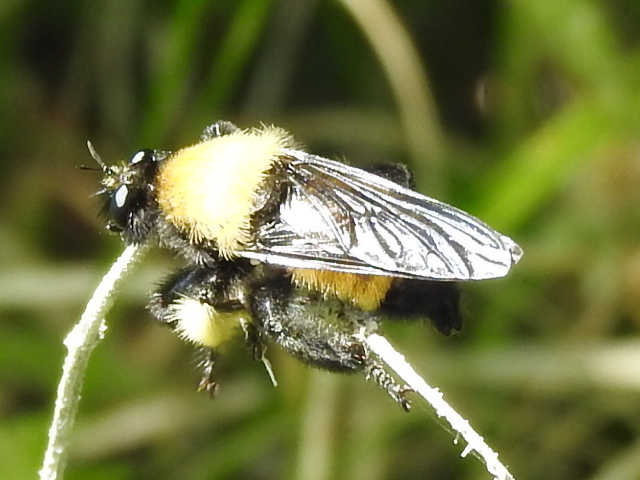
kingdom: Animalia
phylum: Arthropoda
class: Insecta
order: Diptera
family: Asilidae
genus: Laphria
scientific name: Laphria macquarti
